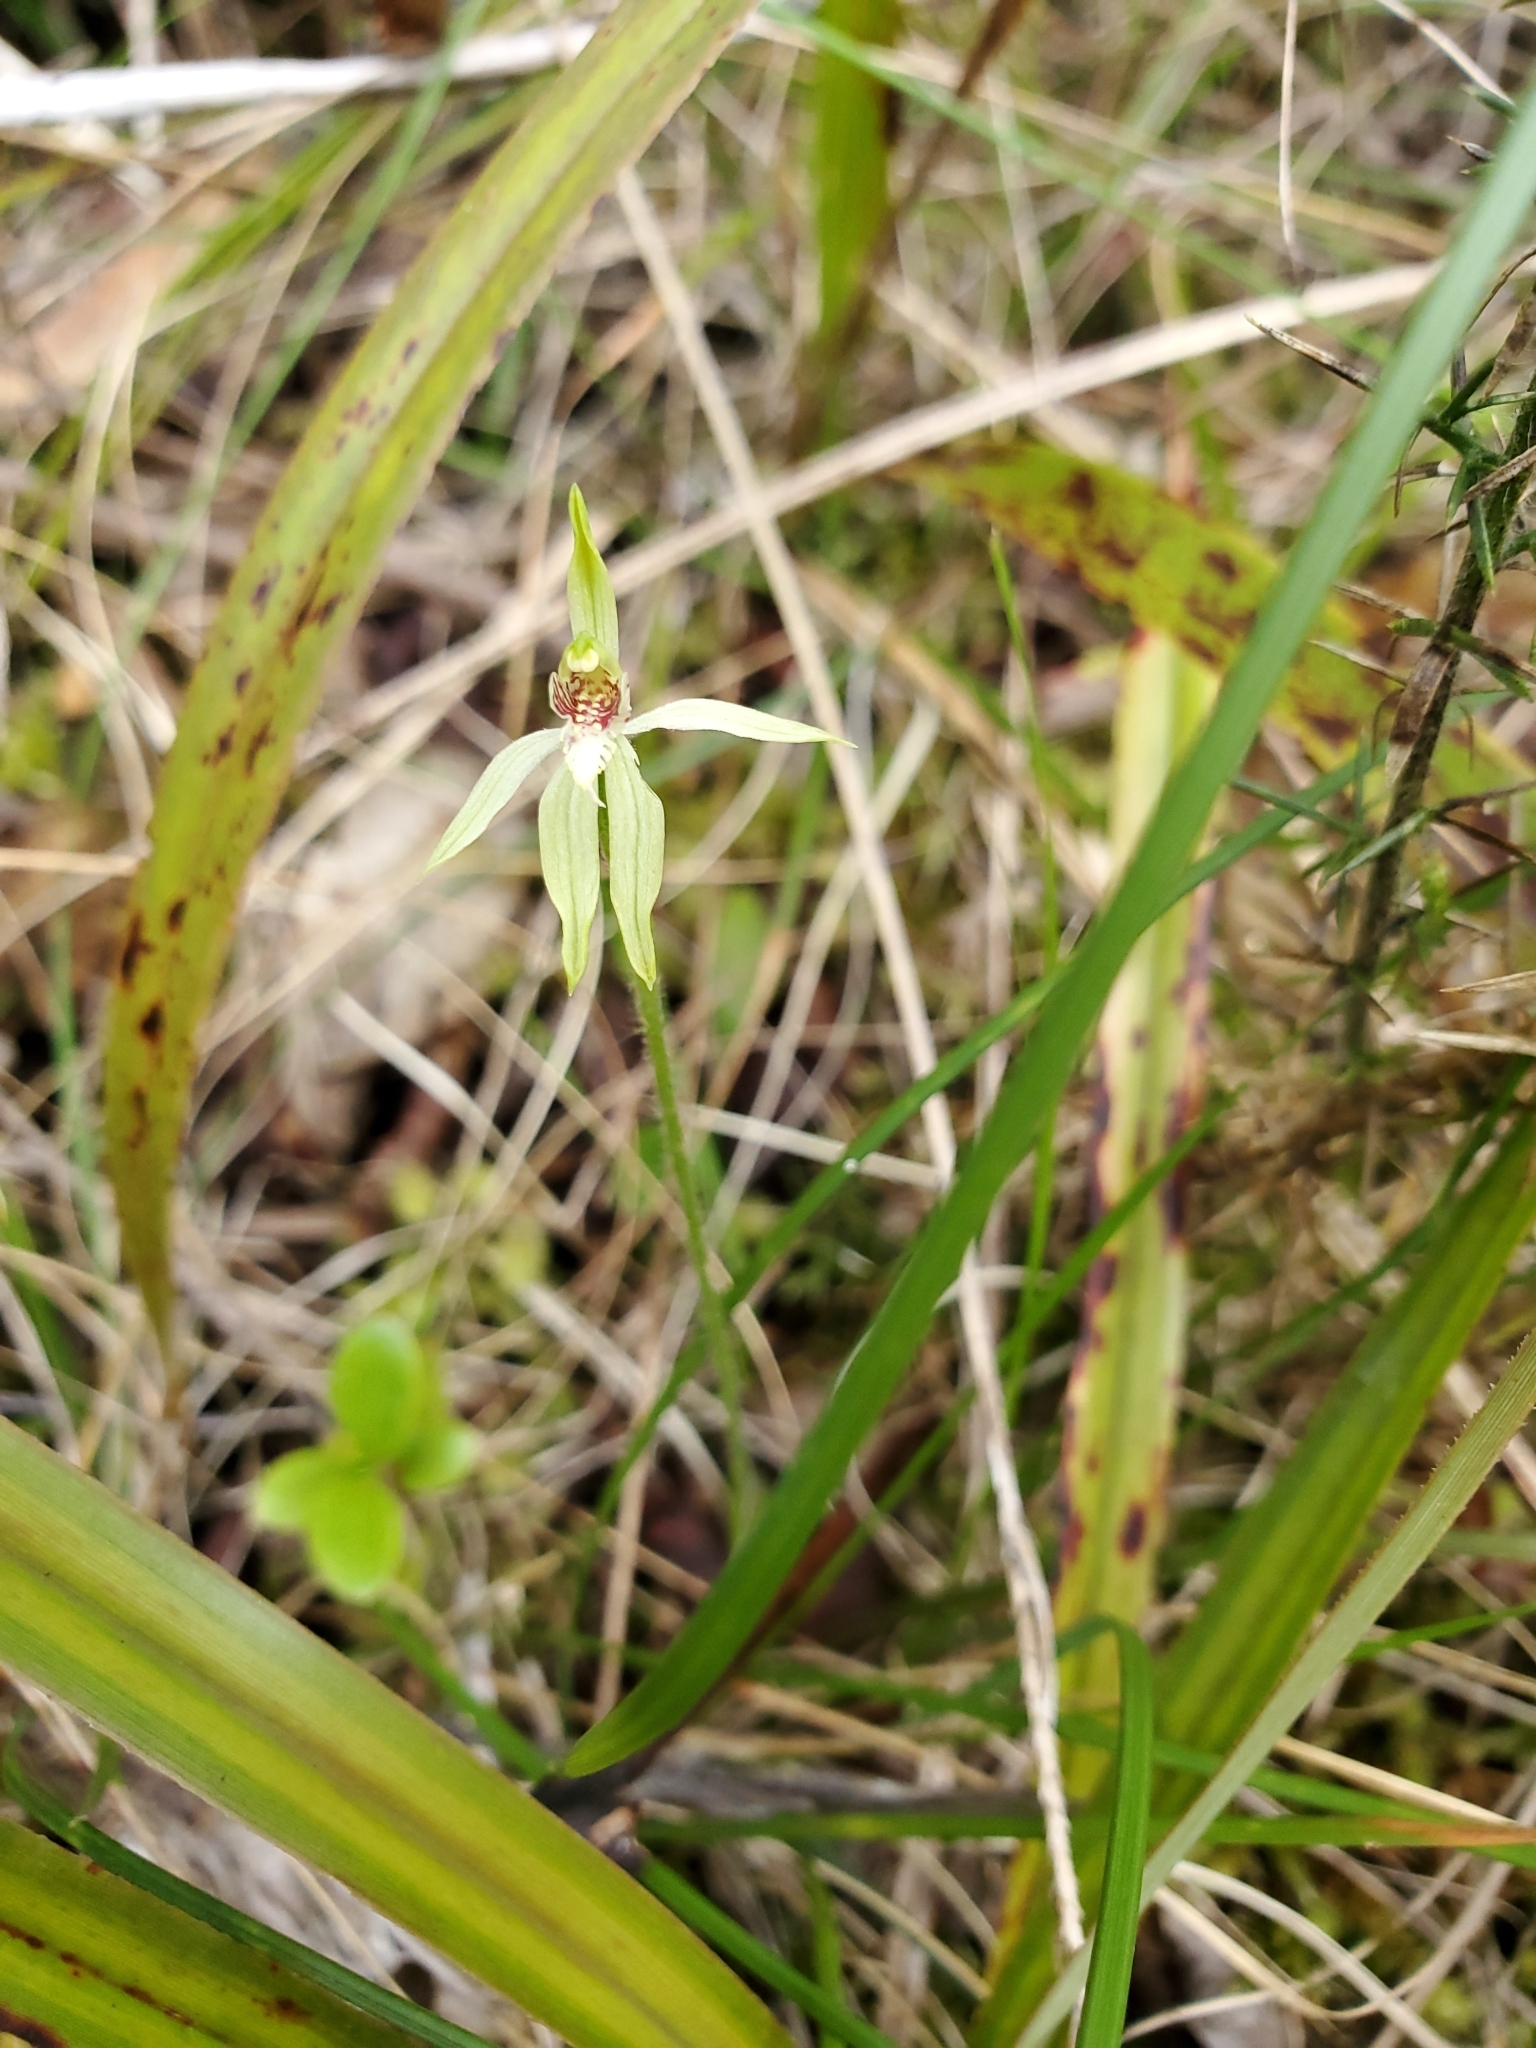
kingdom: Plantae
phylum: Tracheophyta
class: Liliopsida
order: Asparagales
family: Orchidaceae
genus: Caladenia
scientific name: Caladenia chlorostyla
